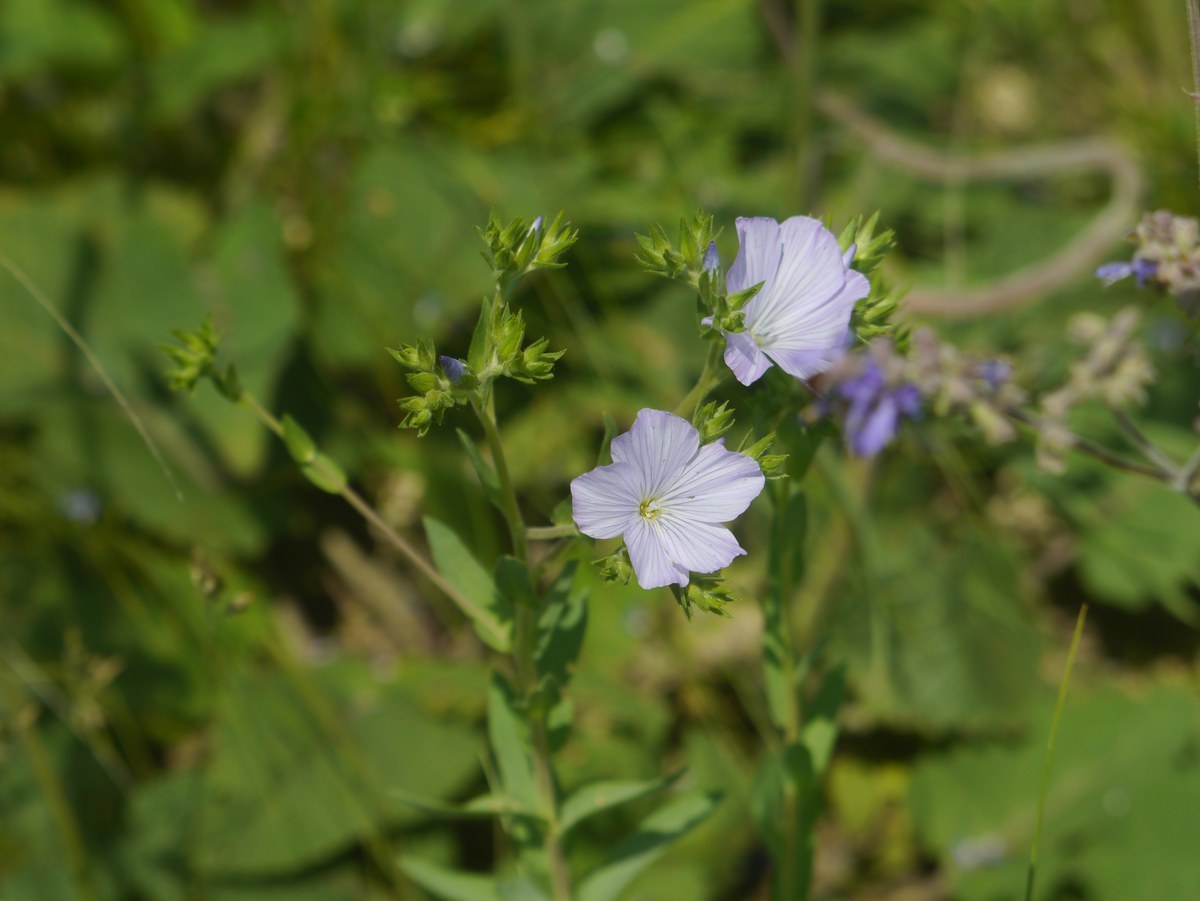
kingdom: Plantae
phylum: Tracheophyta
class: Magnoliopsida
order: Malpighiales
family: Linaceae
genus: Linum
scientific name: Linum hirsutum
